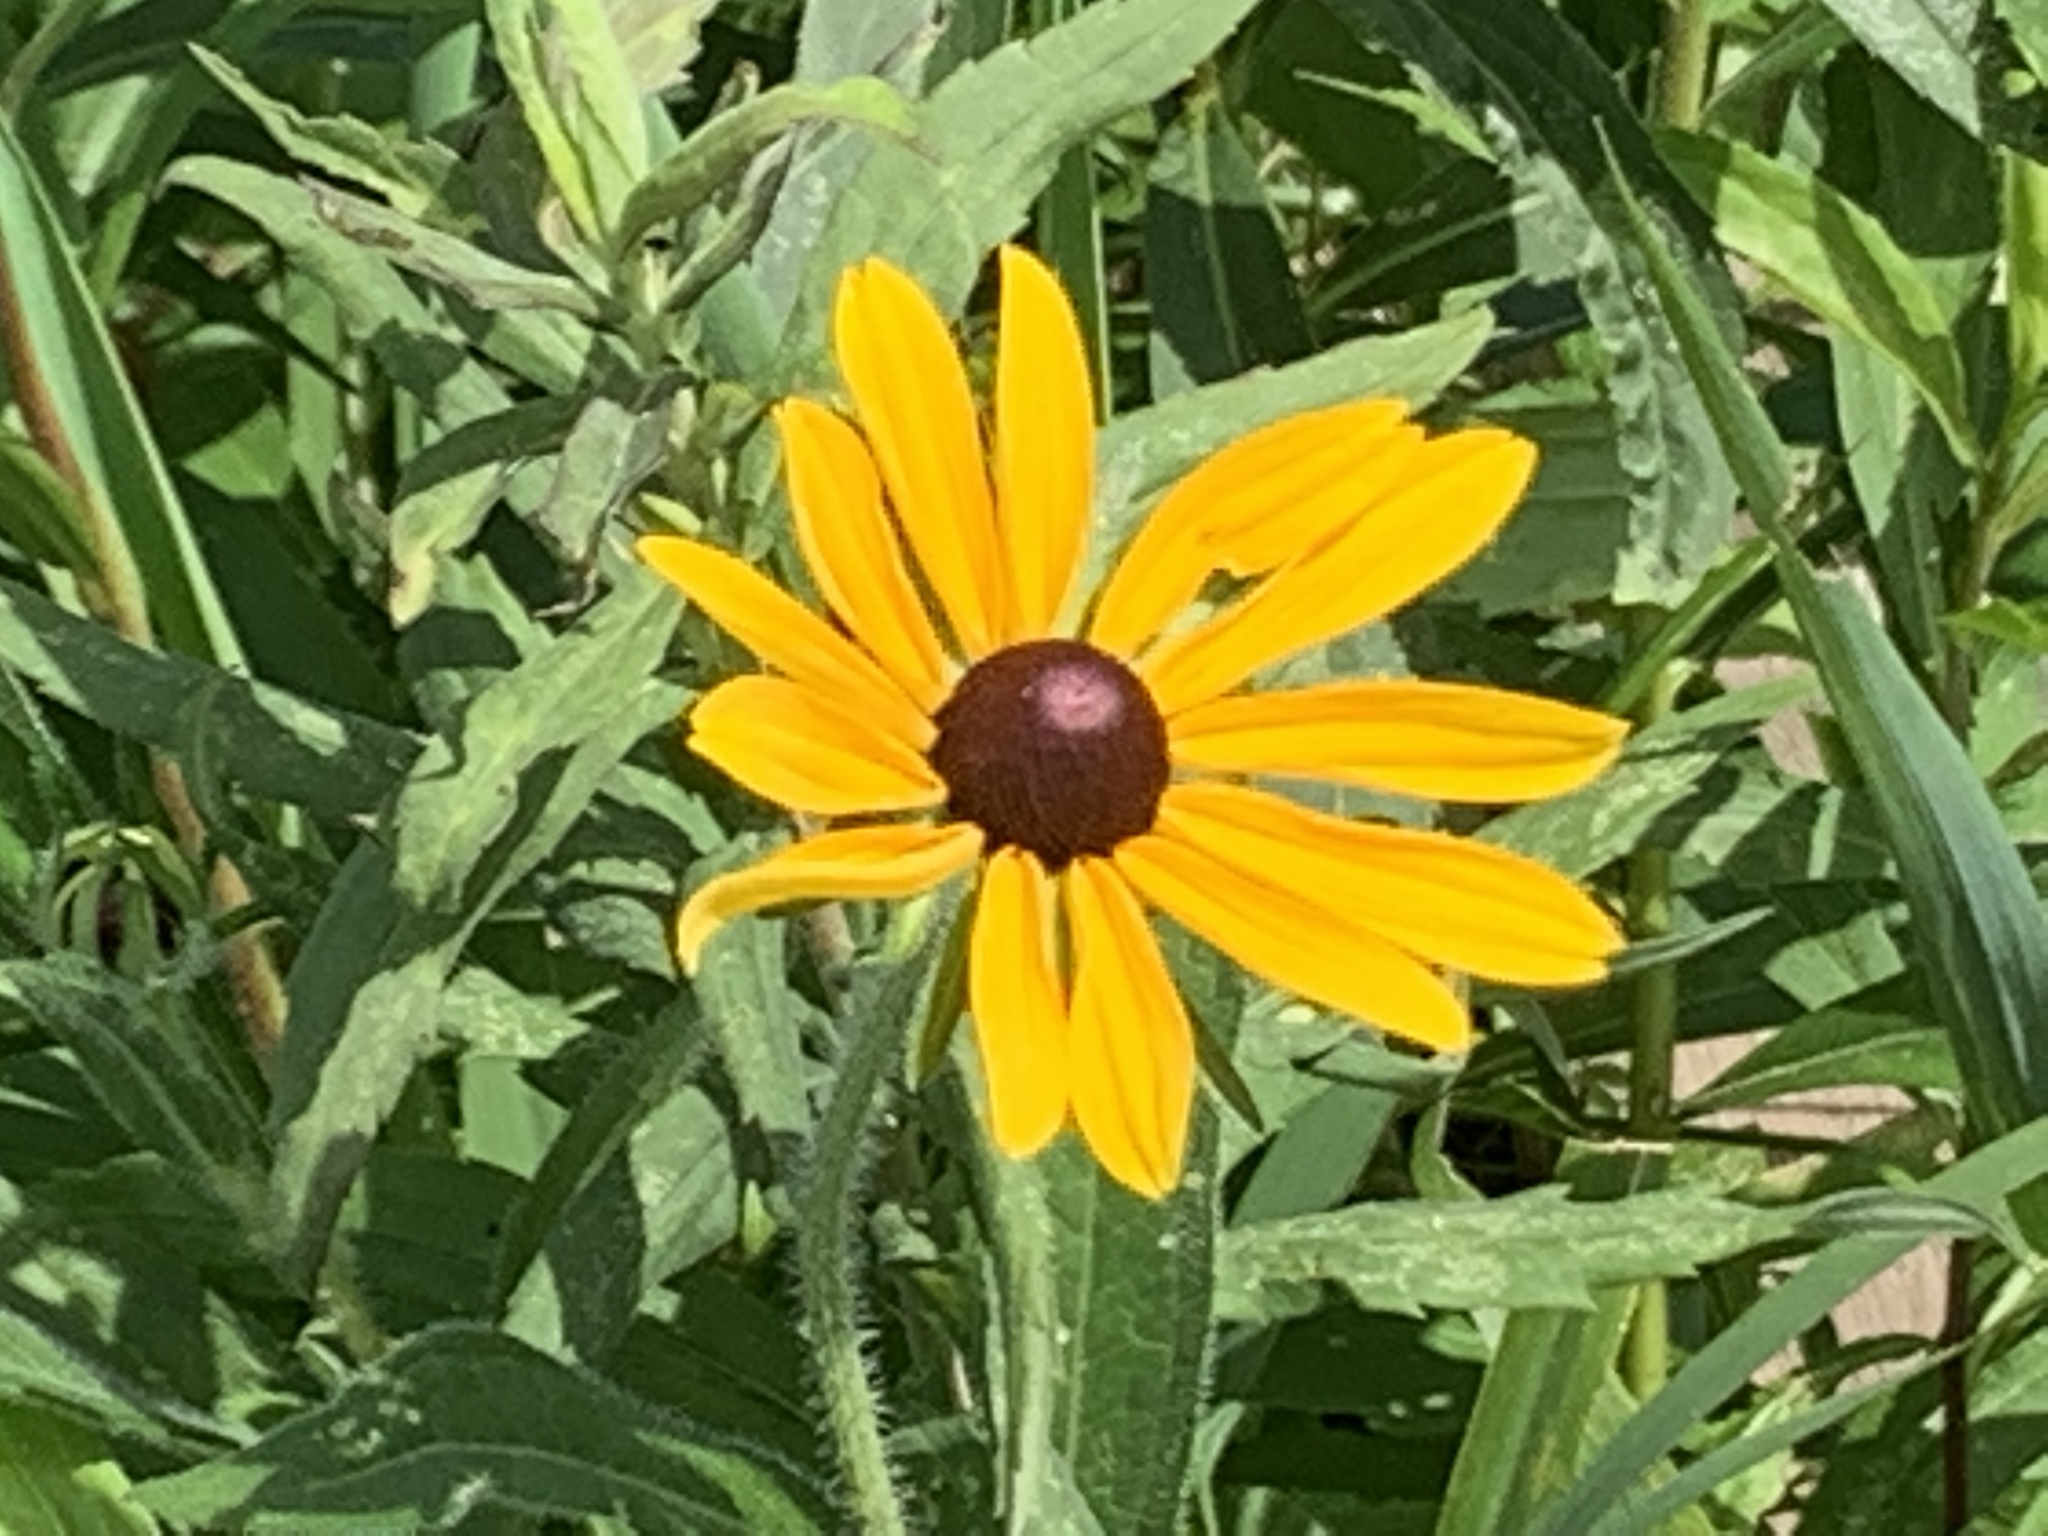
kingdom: Plantae
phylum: Tracheophyta
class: Magnoliopsida
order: Asterales
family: Asteraceae
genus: Rudbeckia
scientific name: Rudbeckia hirta
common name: Black-eyed-susan
